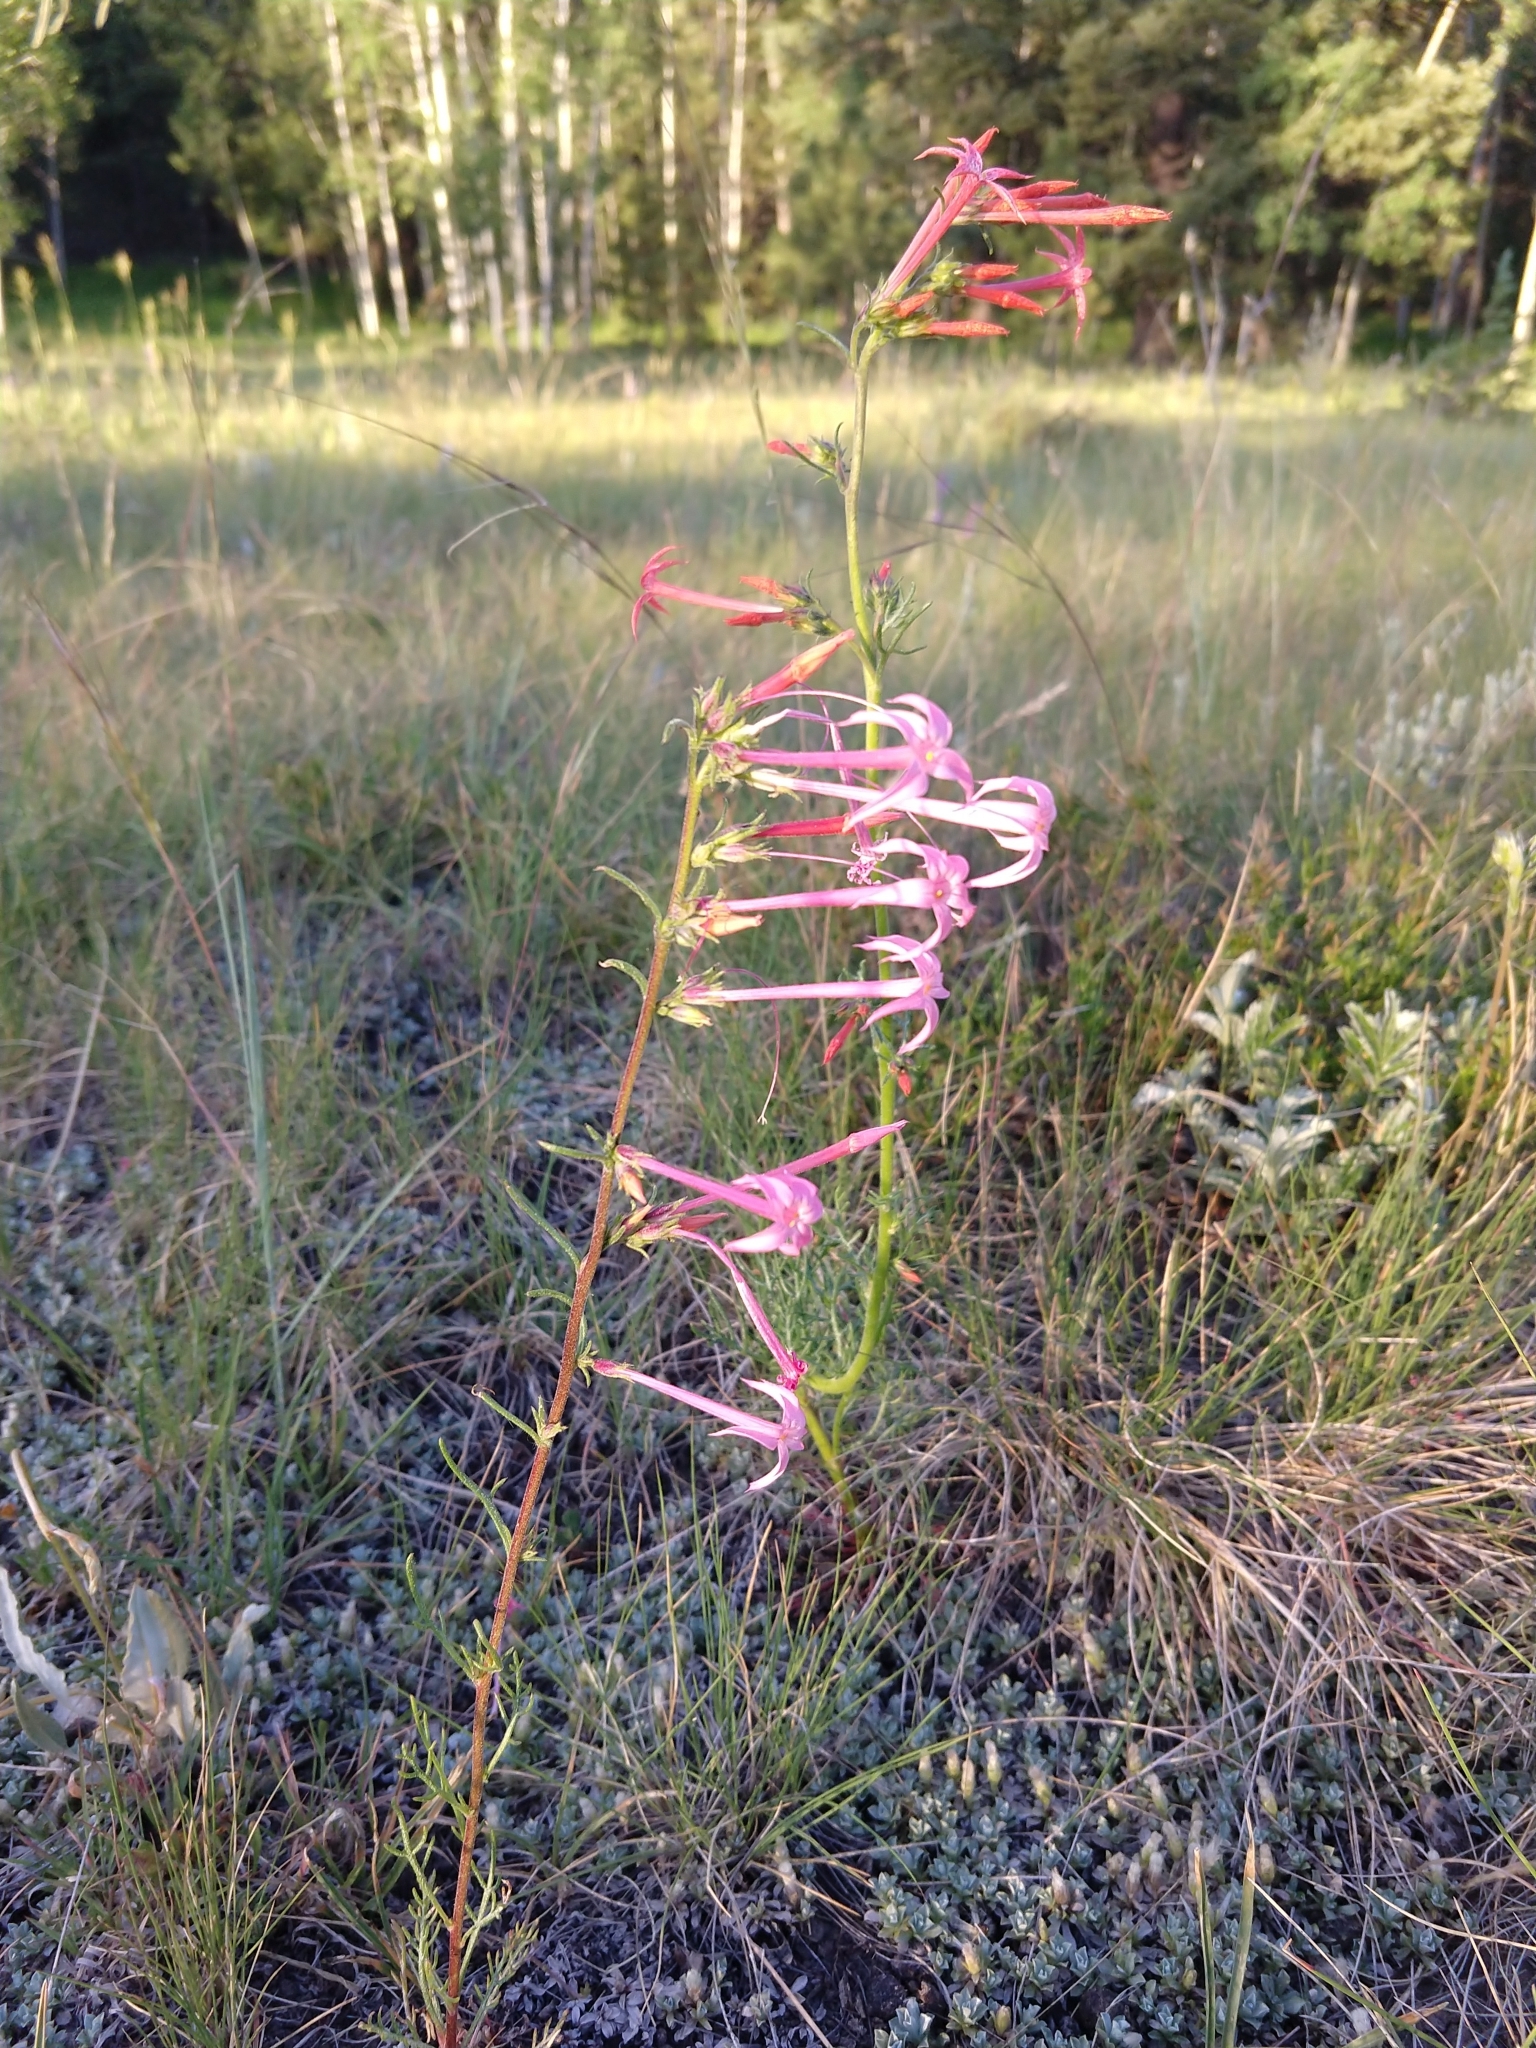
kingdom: Plantae
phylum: Tracheophyta
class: Magnoliopsida
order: Ericales
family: Polemoniaceae
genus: Ipomopsis
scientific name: Ipomopsis tenuituba
